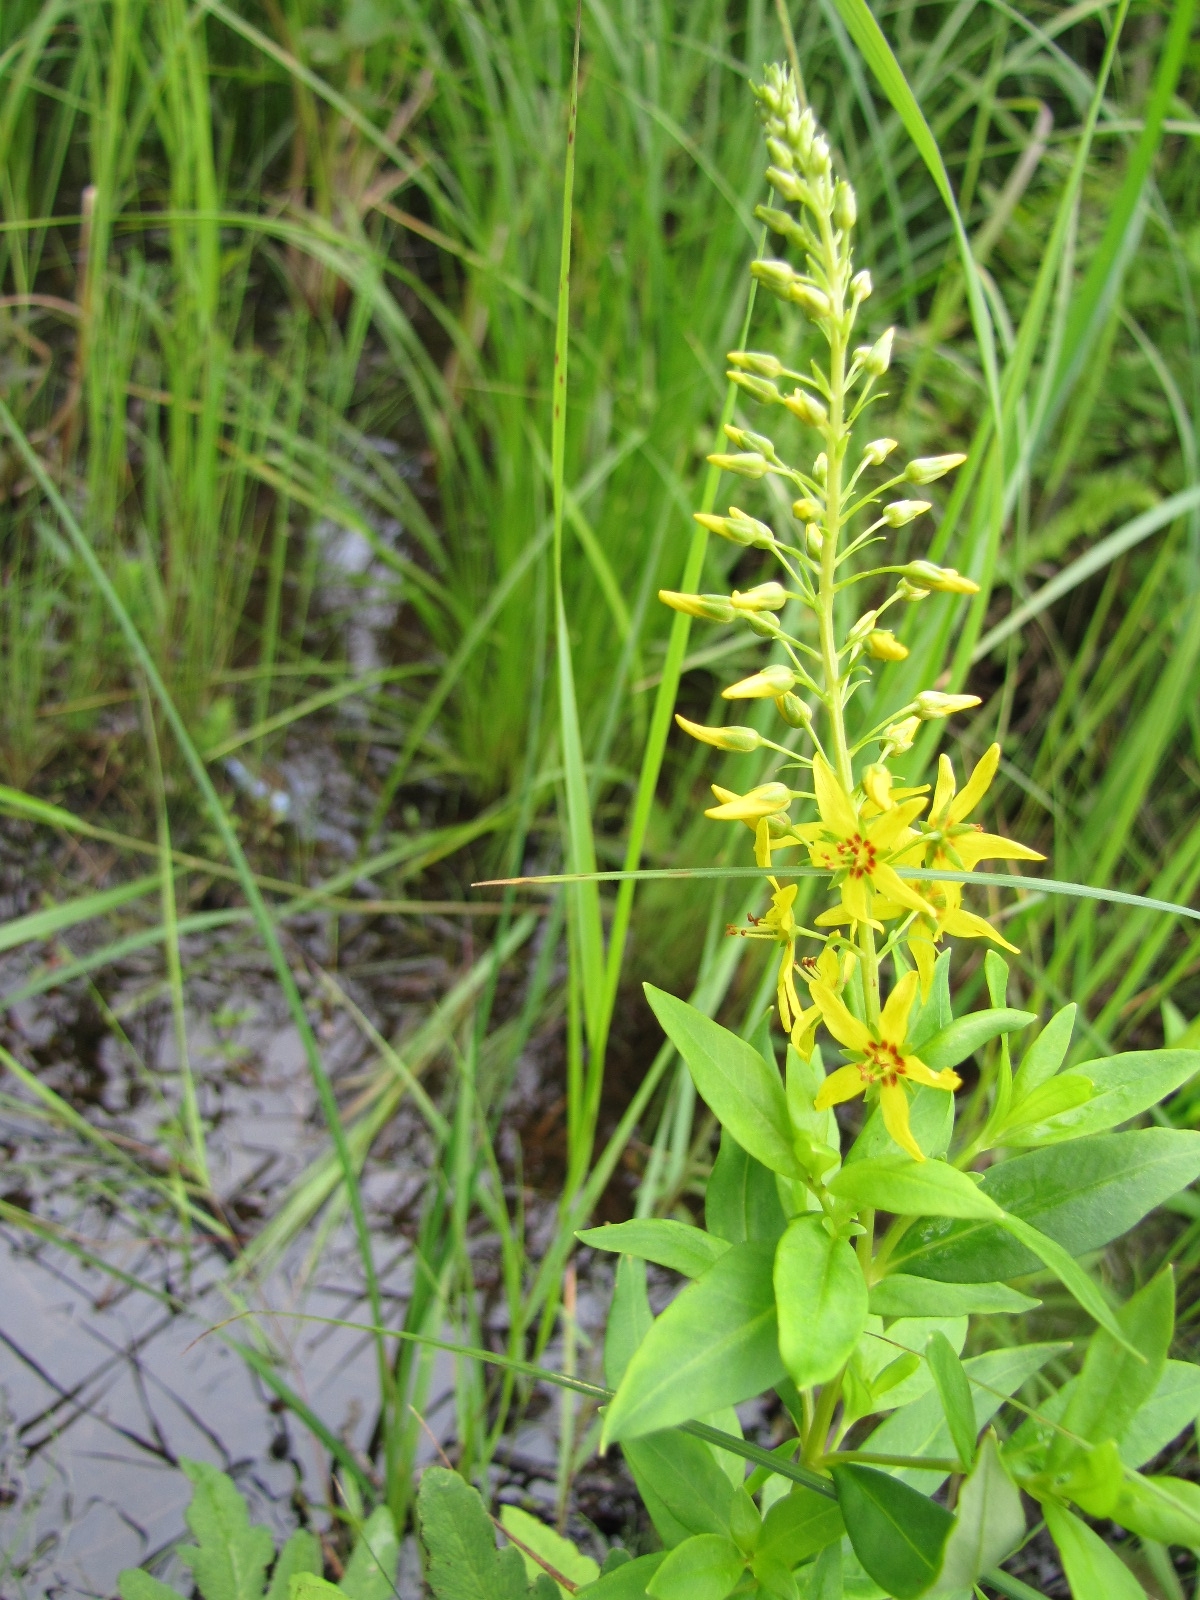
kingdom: Plantae
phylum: Tracheophyta
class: Magnoliopsida
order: Ericales
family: Primulaceae
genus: Lysimachia
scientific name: Lysimachia terrestris
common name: Lake loosestrife
